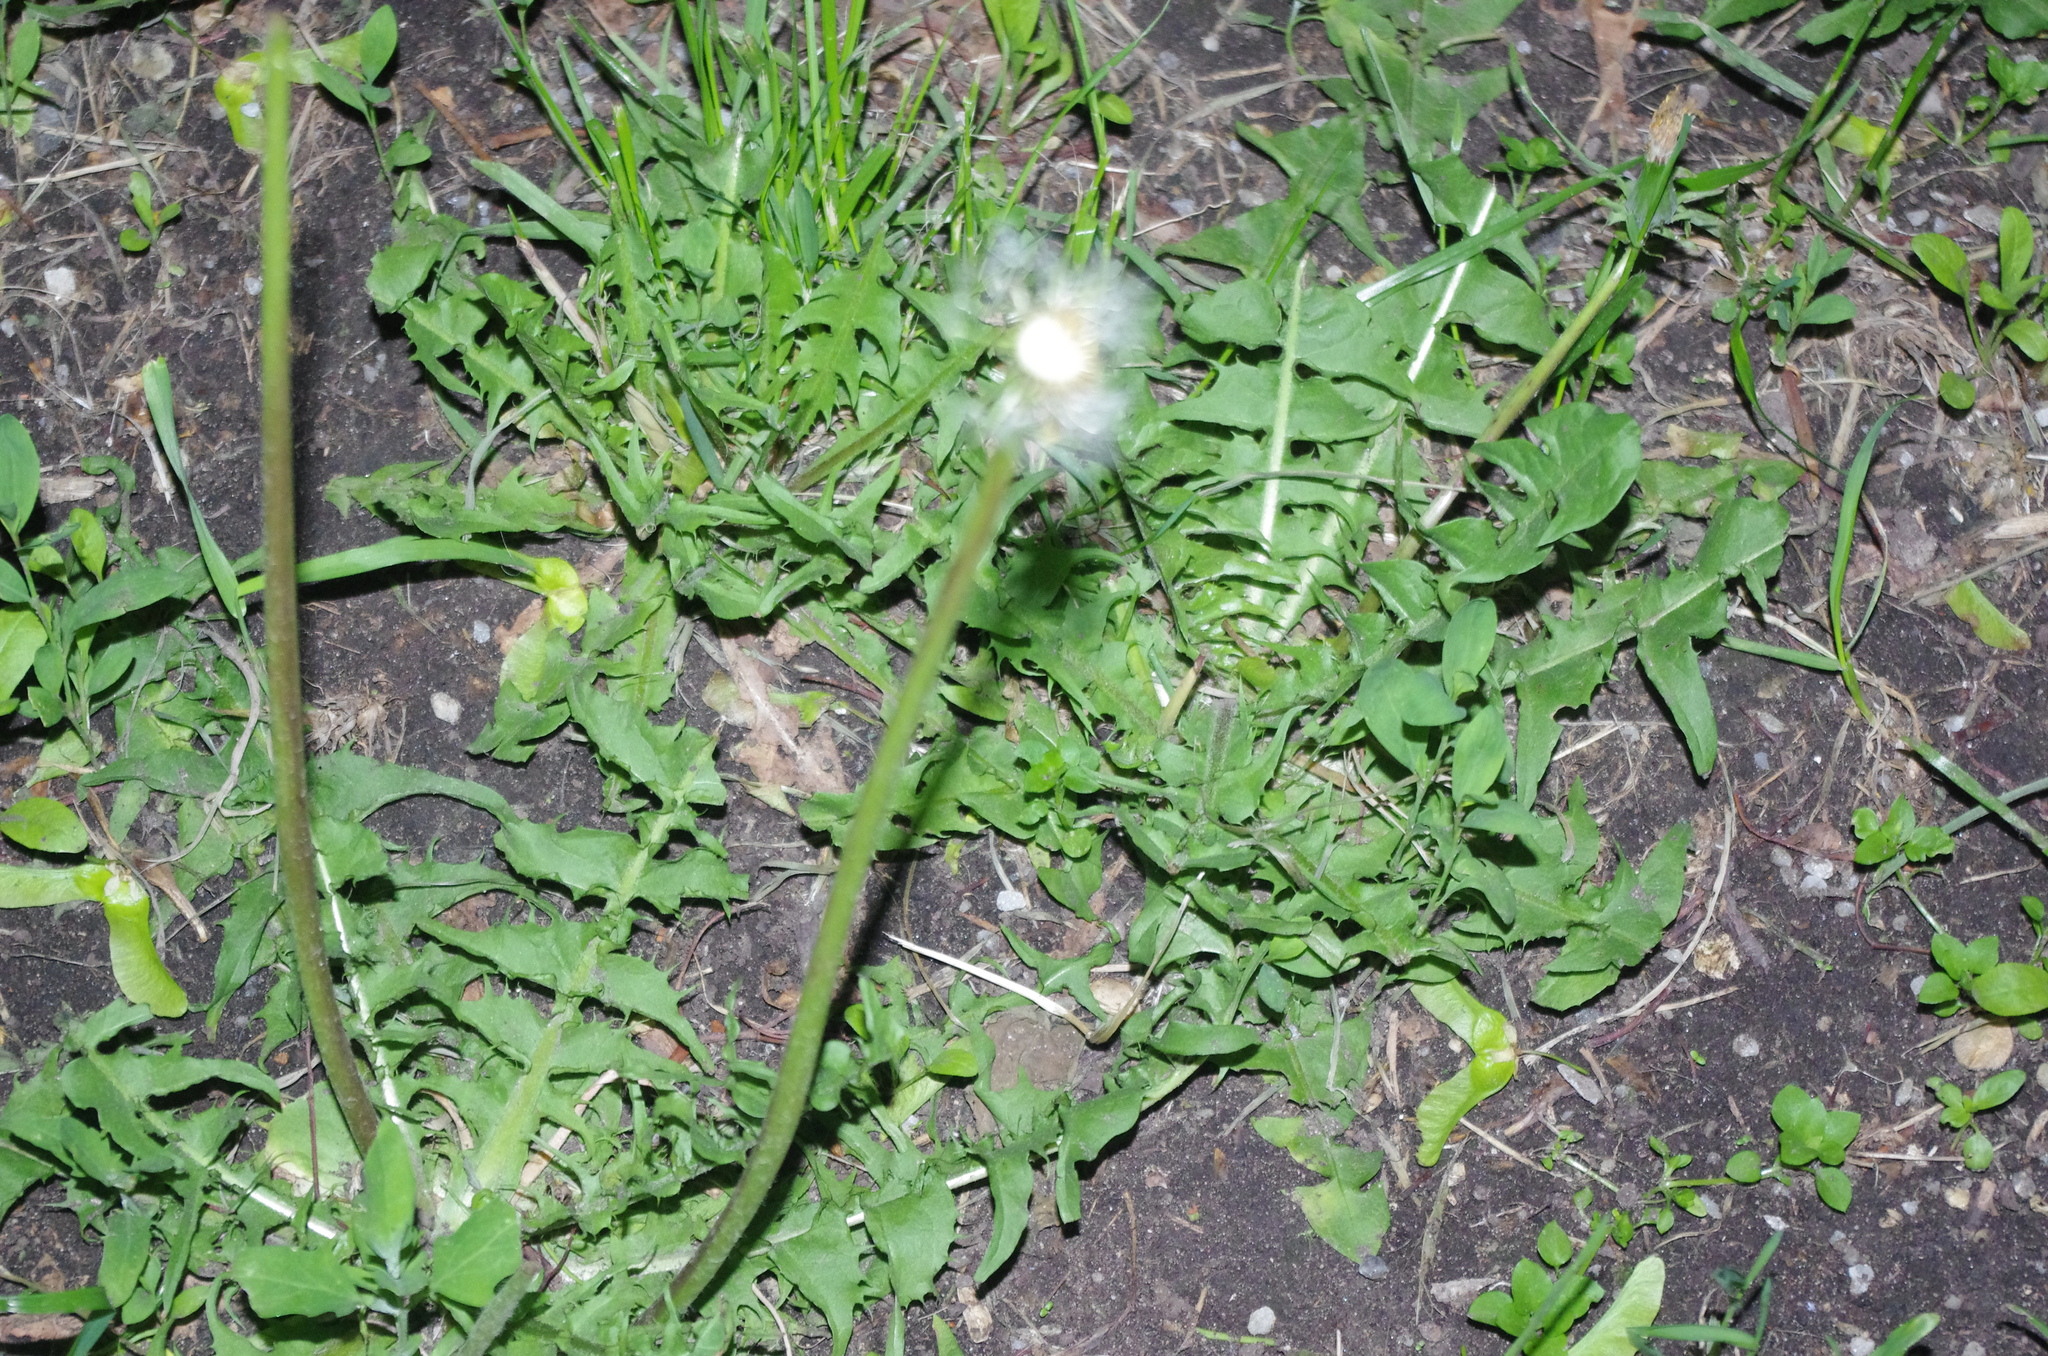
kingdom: Plantae
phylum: Tracheophyta
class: Magnoliopsida
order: Asterales
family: Asteraceae
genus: Taraxacum
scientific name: Taraxacum officinale
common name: Common dandelion
